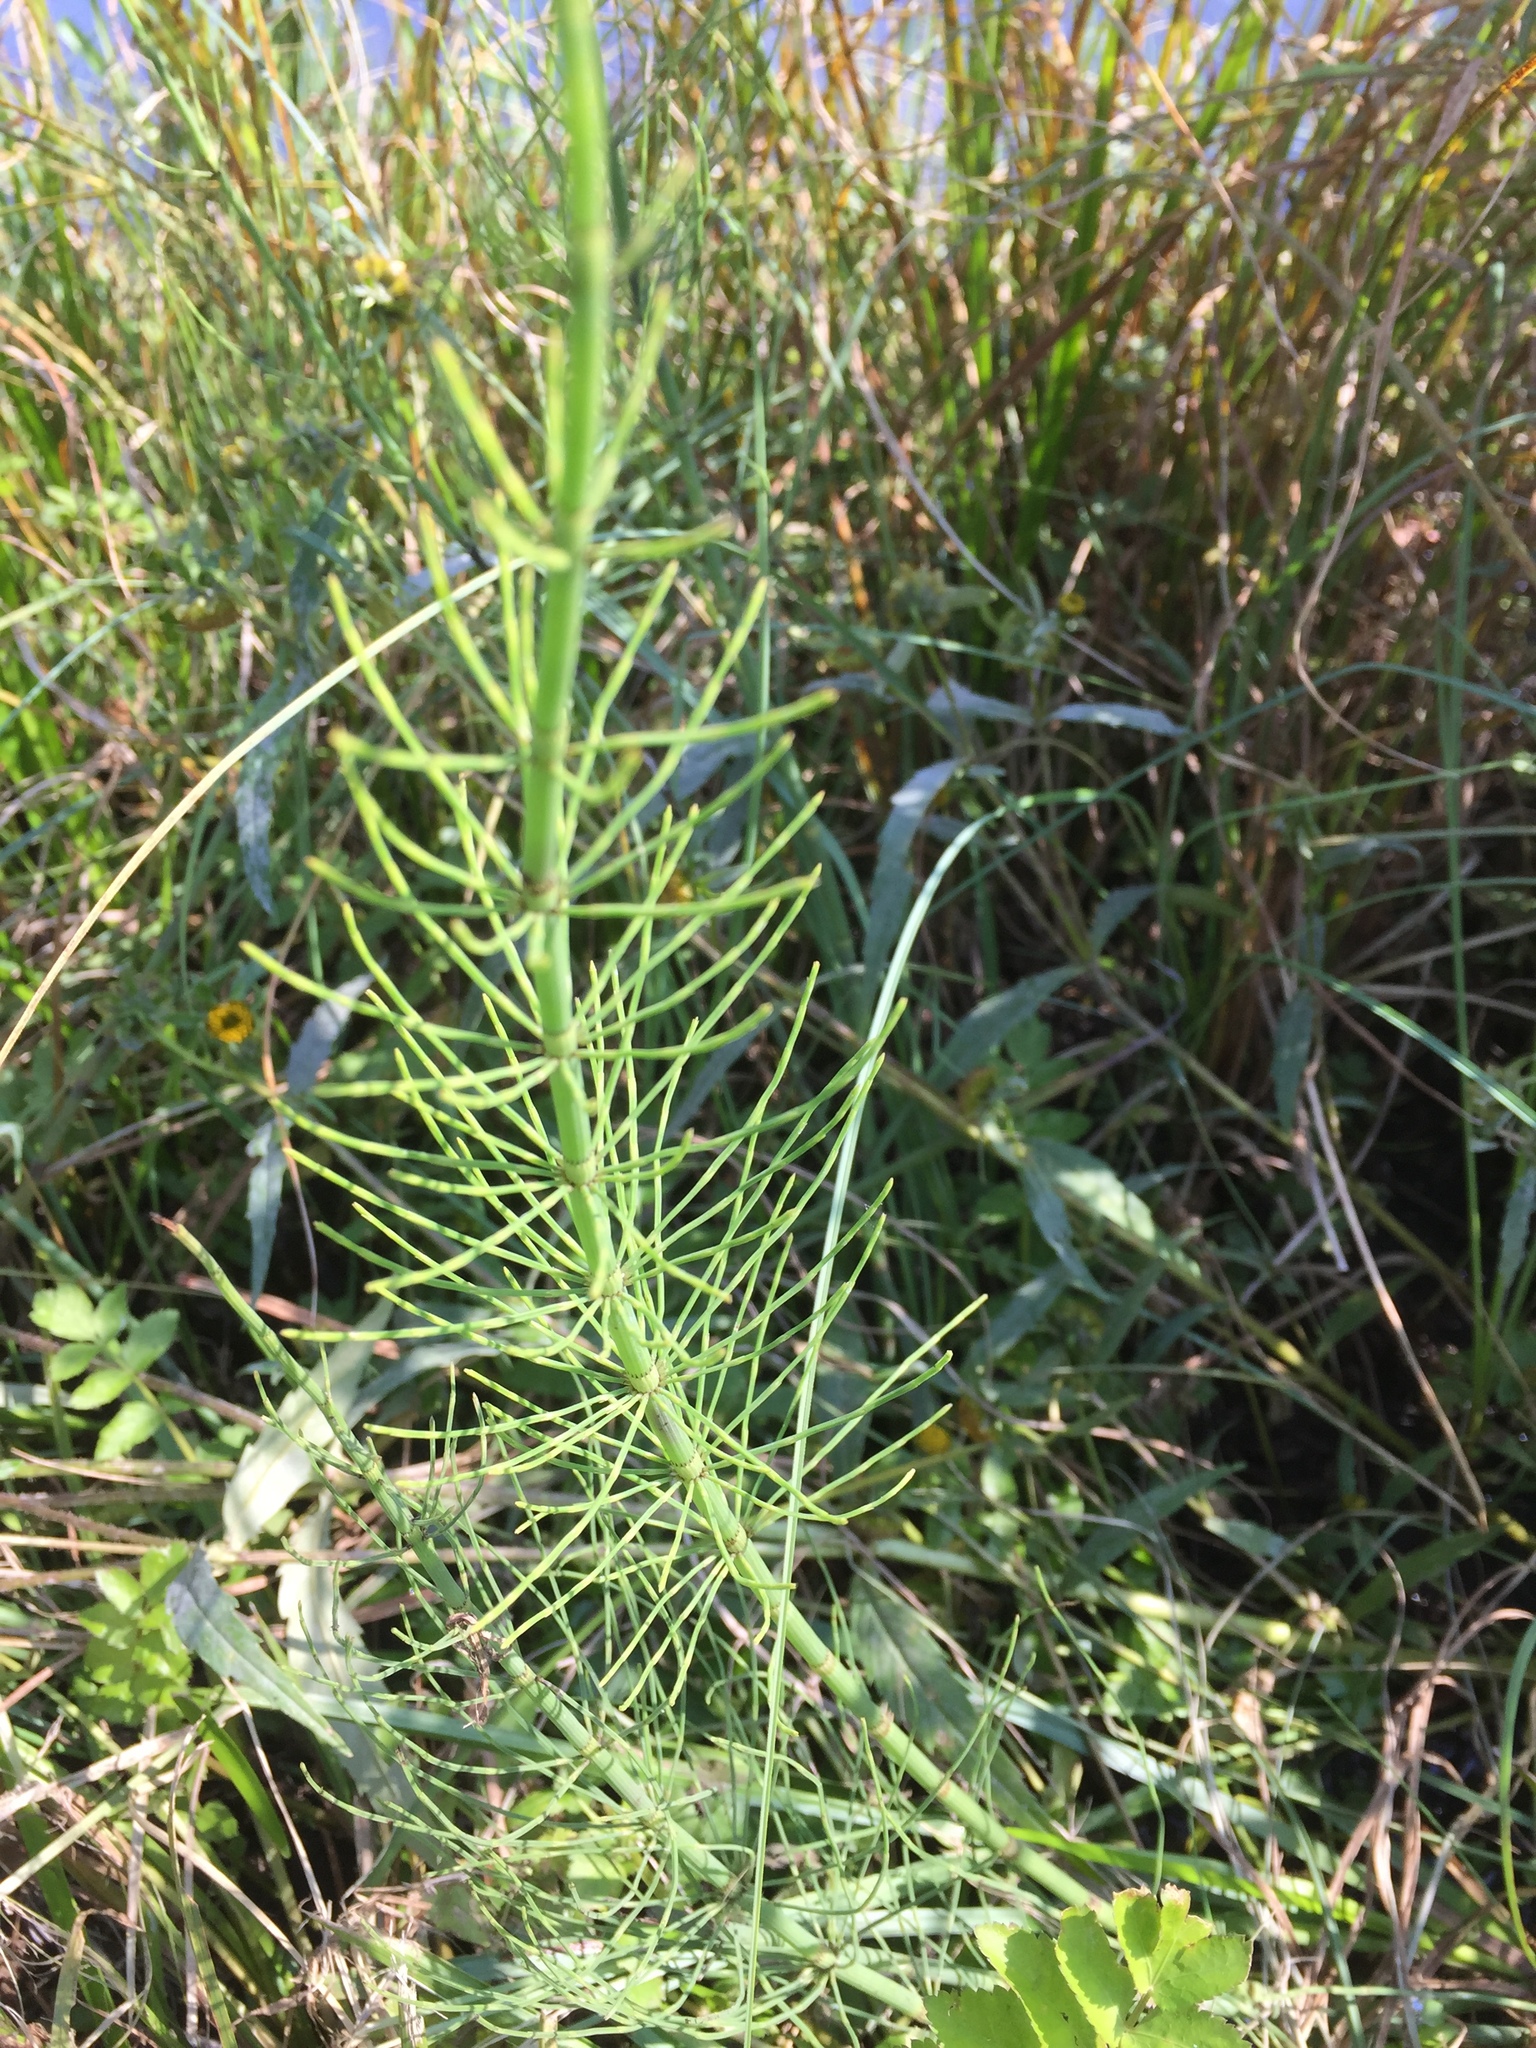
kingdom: Plantae
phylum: Tracheophyta
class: Polypodiopsida
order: Equisetales
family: Equisetaceae
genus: Equisetum
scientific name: Equisetum fluviatile
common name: Water horsetail
